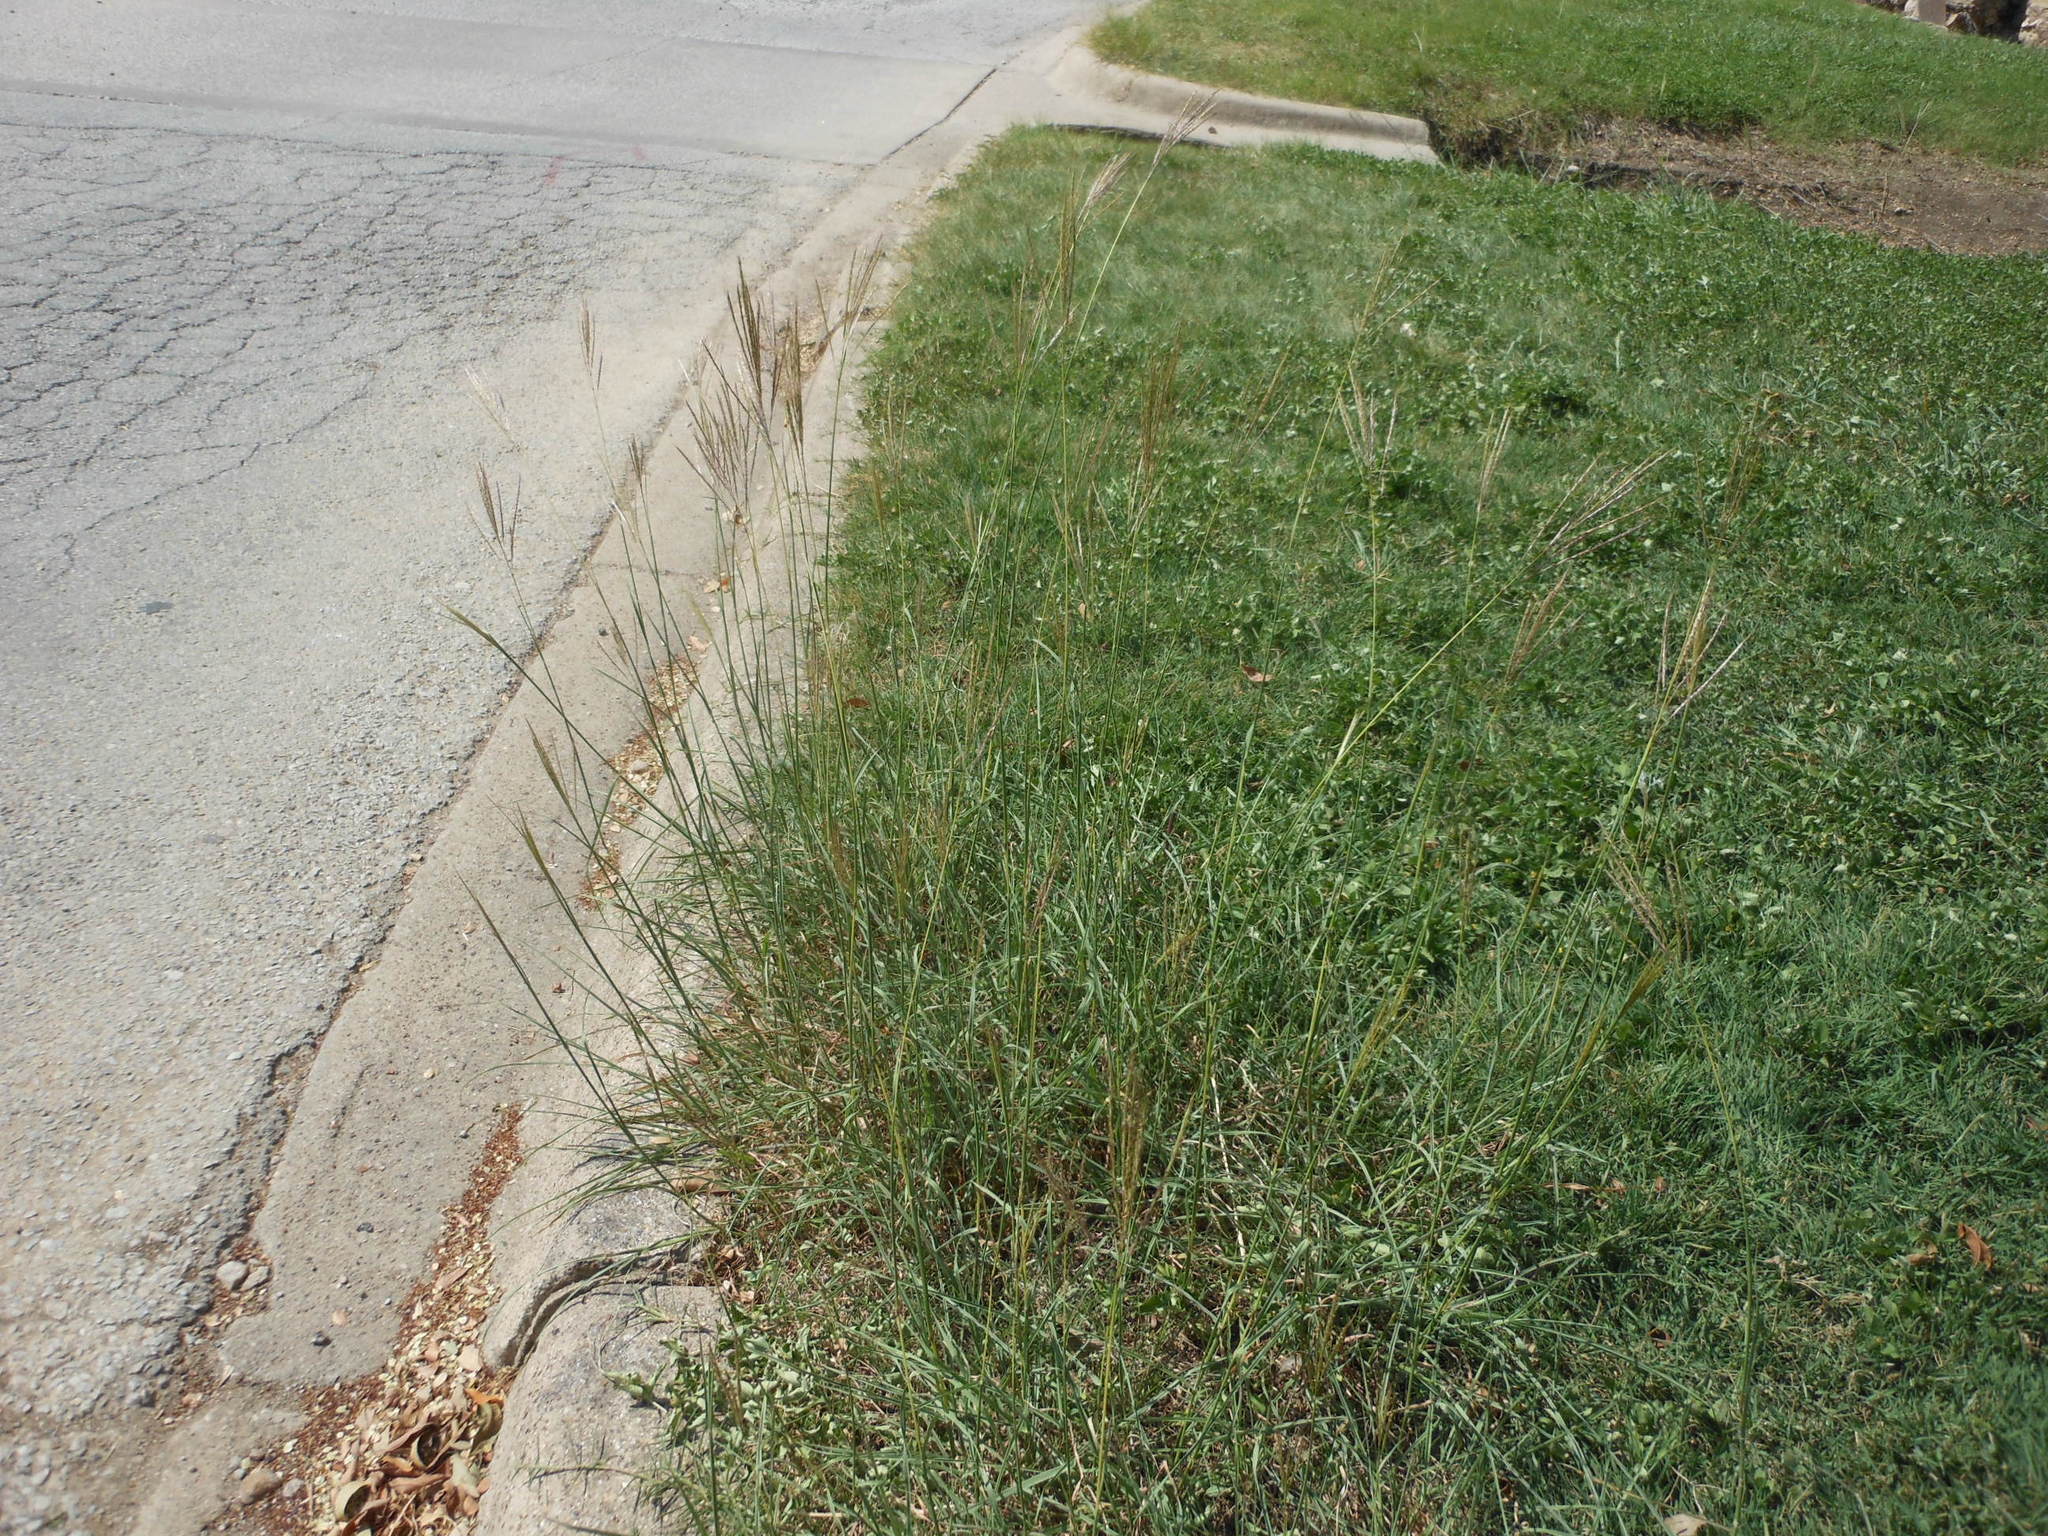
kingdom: Plantae
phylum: Tracheophyta
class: Liliopsida
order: Poales
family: Poaceae
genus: Bothriochloa
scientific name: Bothriochloa ischaemum
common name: Yellow bluestem
